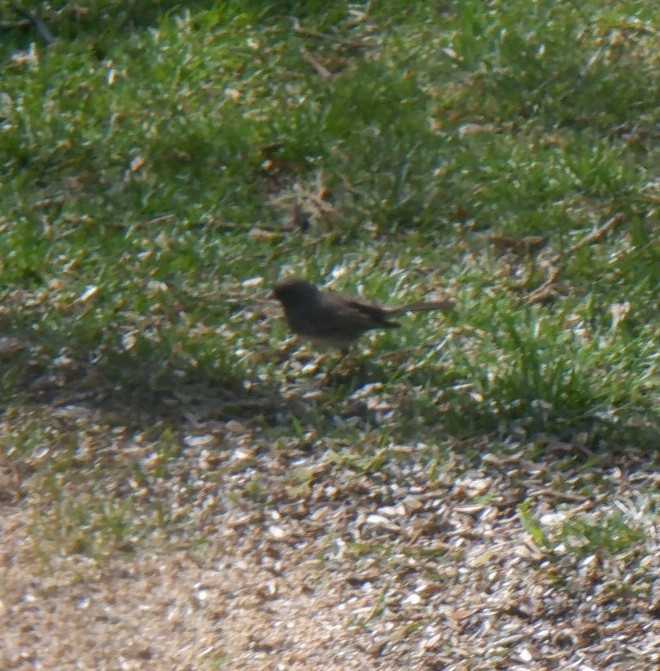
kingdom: Animalia
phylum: Chordata
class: Aves
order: Passeriformes
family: Passerellidae
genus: Junco
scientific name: Junco hyemalis
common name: Dark-eyed junco
